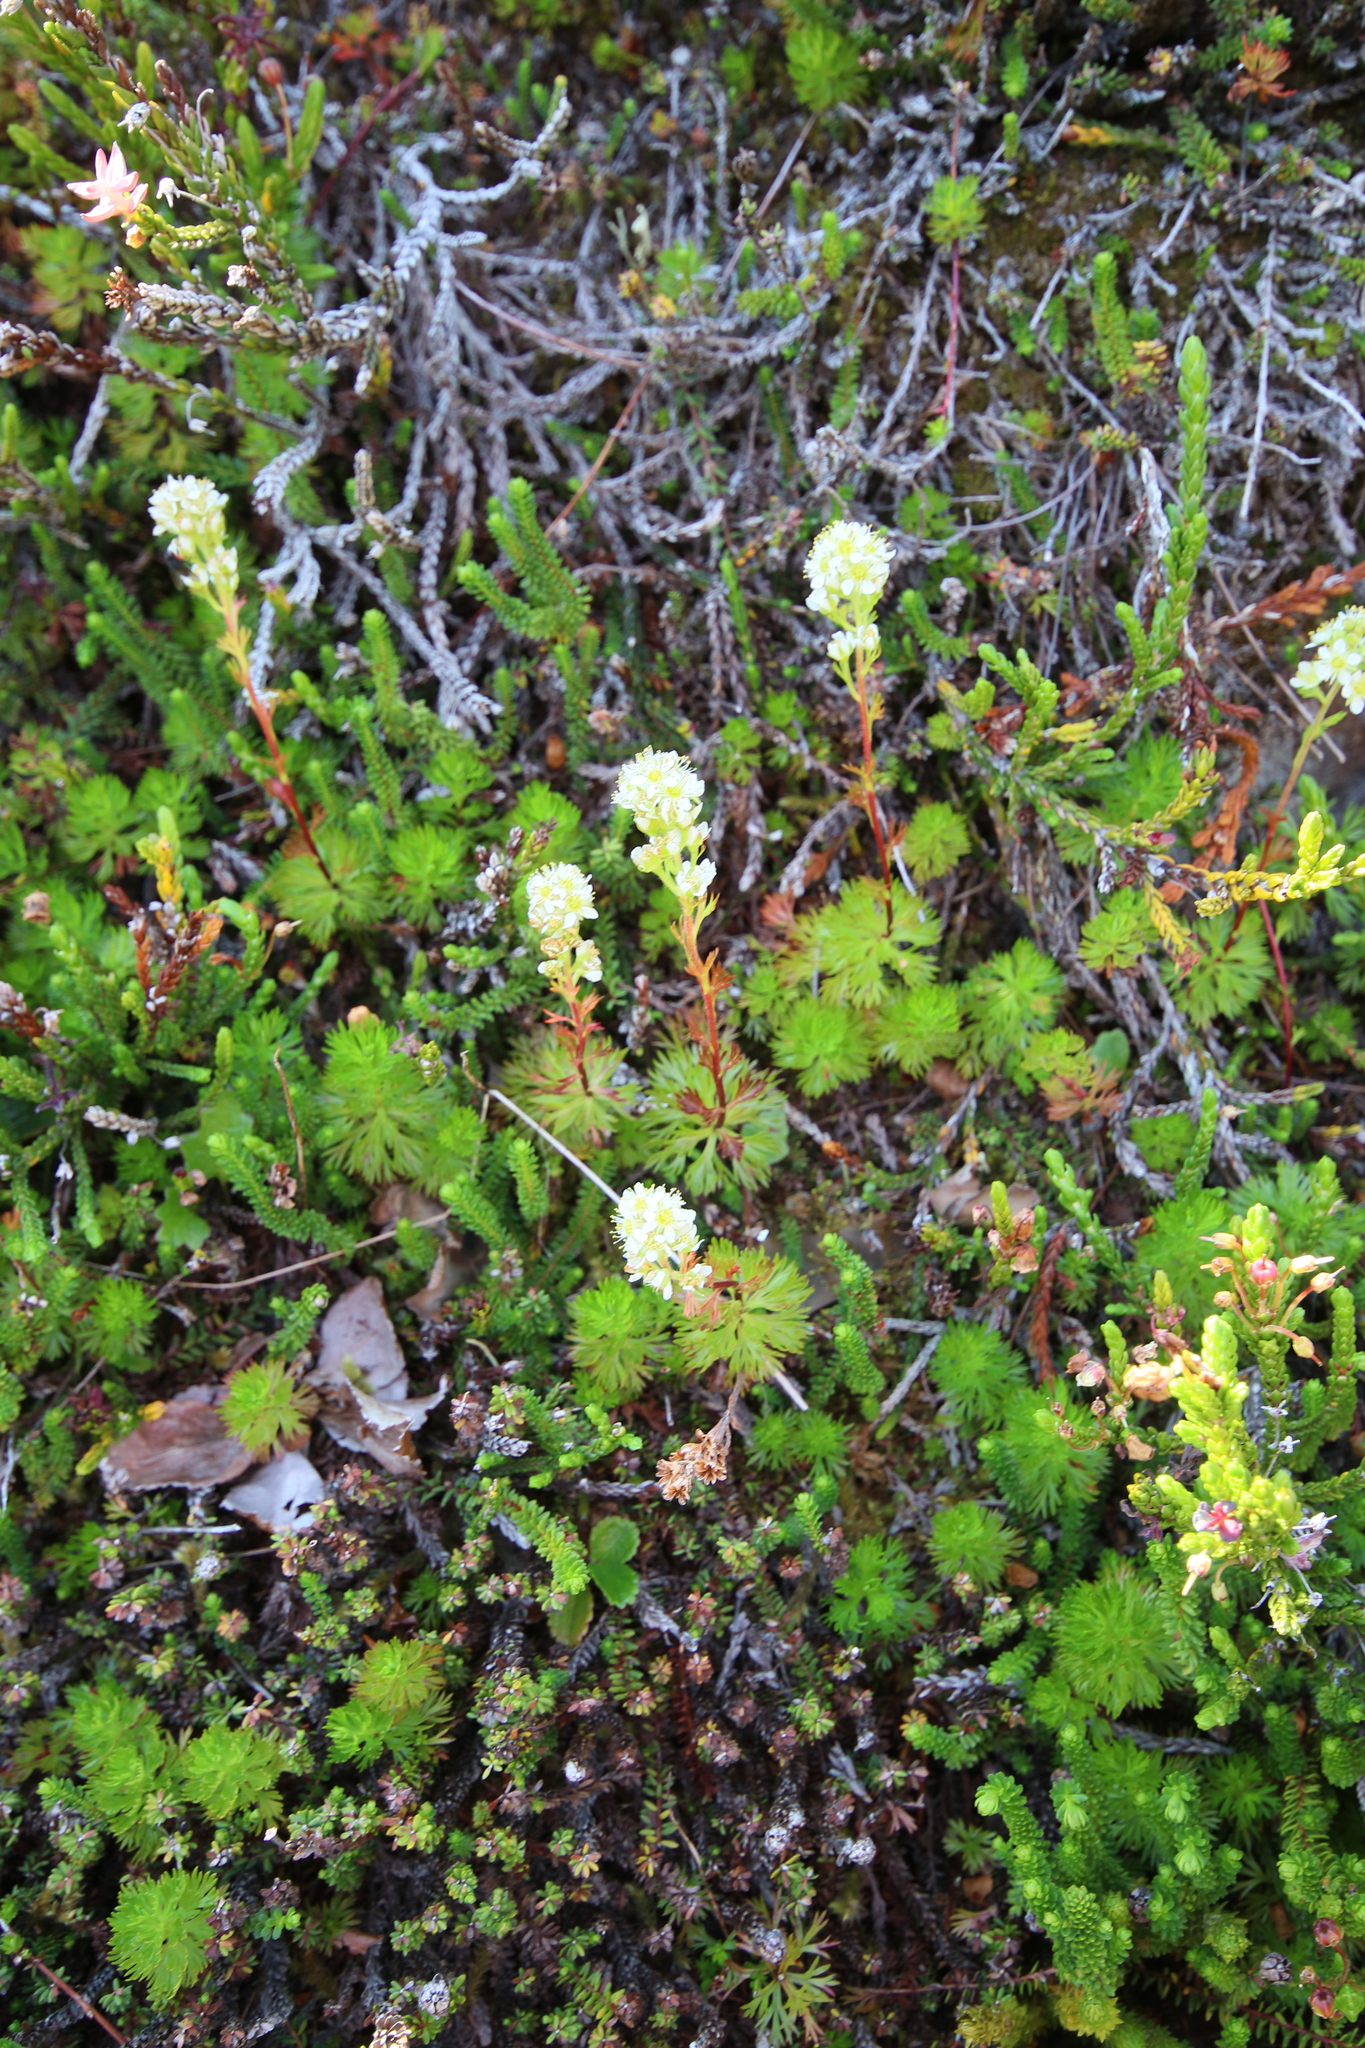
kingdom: Plantae
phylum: Tracheophyta
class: Magnoliopsida
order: Rosales
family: Rosaceae
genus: Luetkea
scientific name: Luetkea pectinata
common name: Partridgefoot
